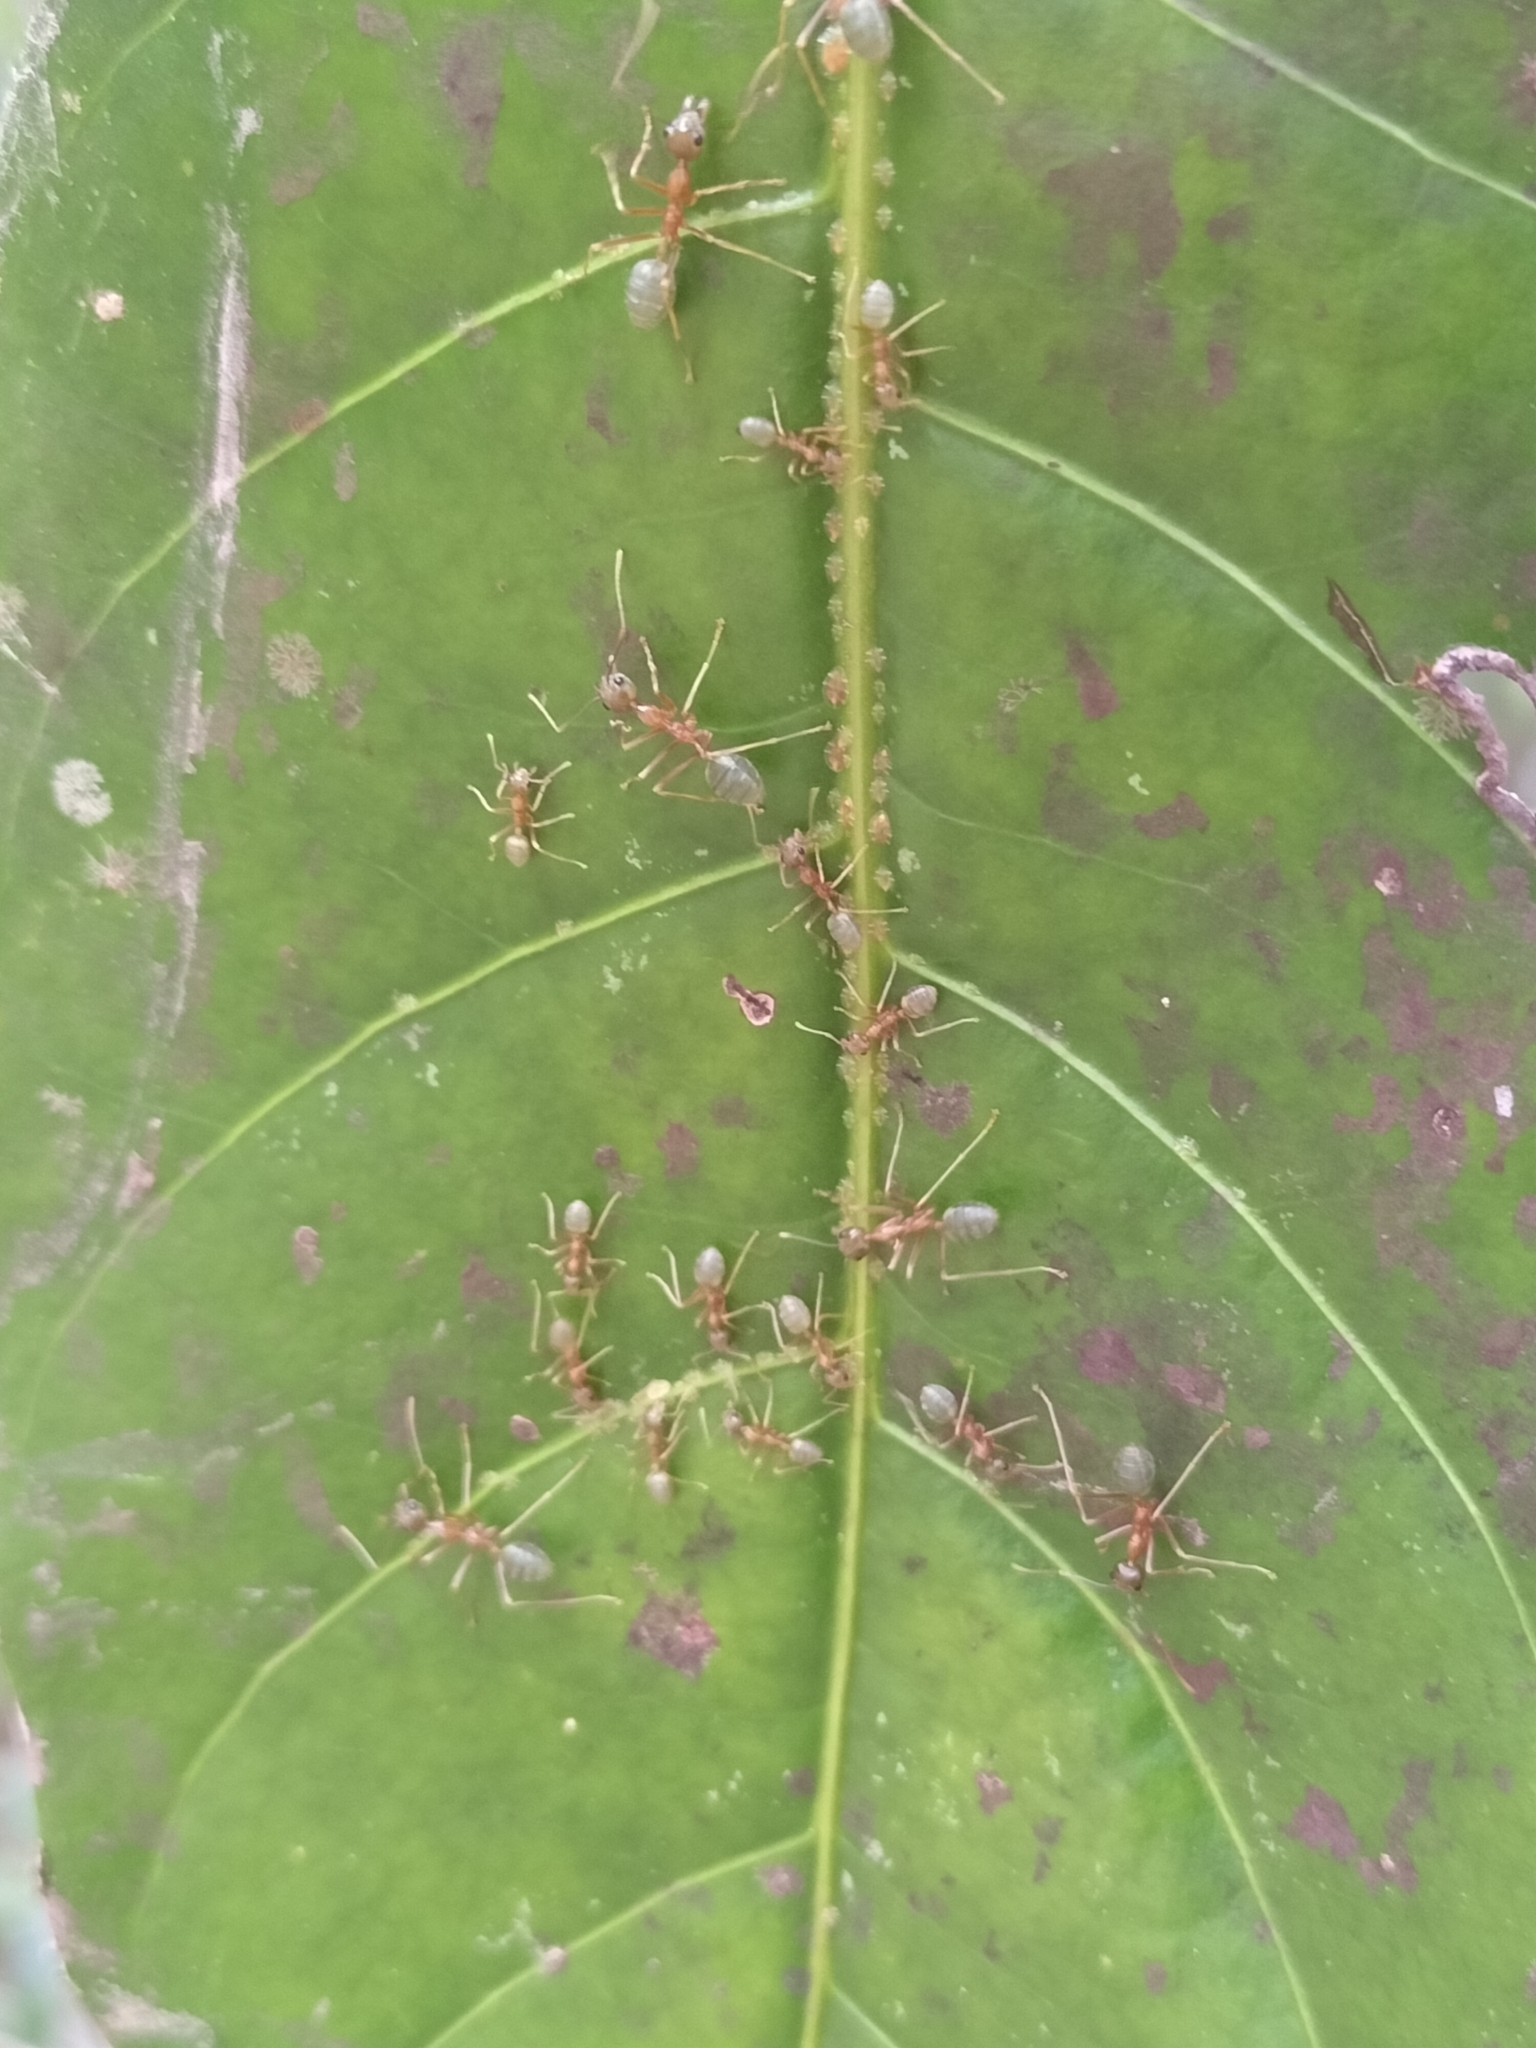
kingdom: Animalia
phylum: Arthropoda
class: Insecta
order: Hymenoptera
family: Formicidae
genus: Oecophylla
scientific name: Oecophylla smaragdina
